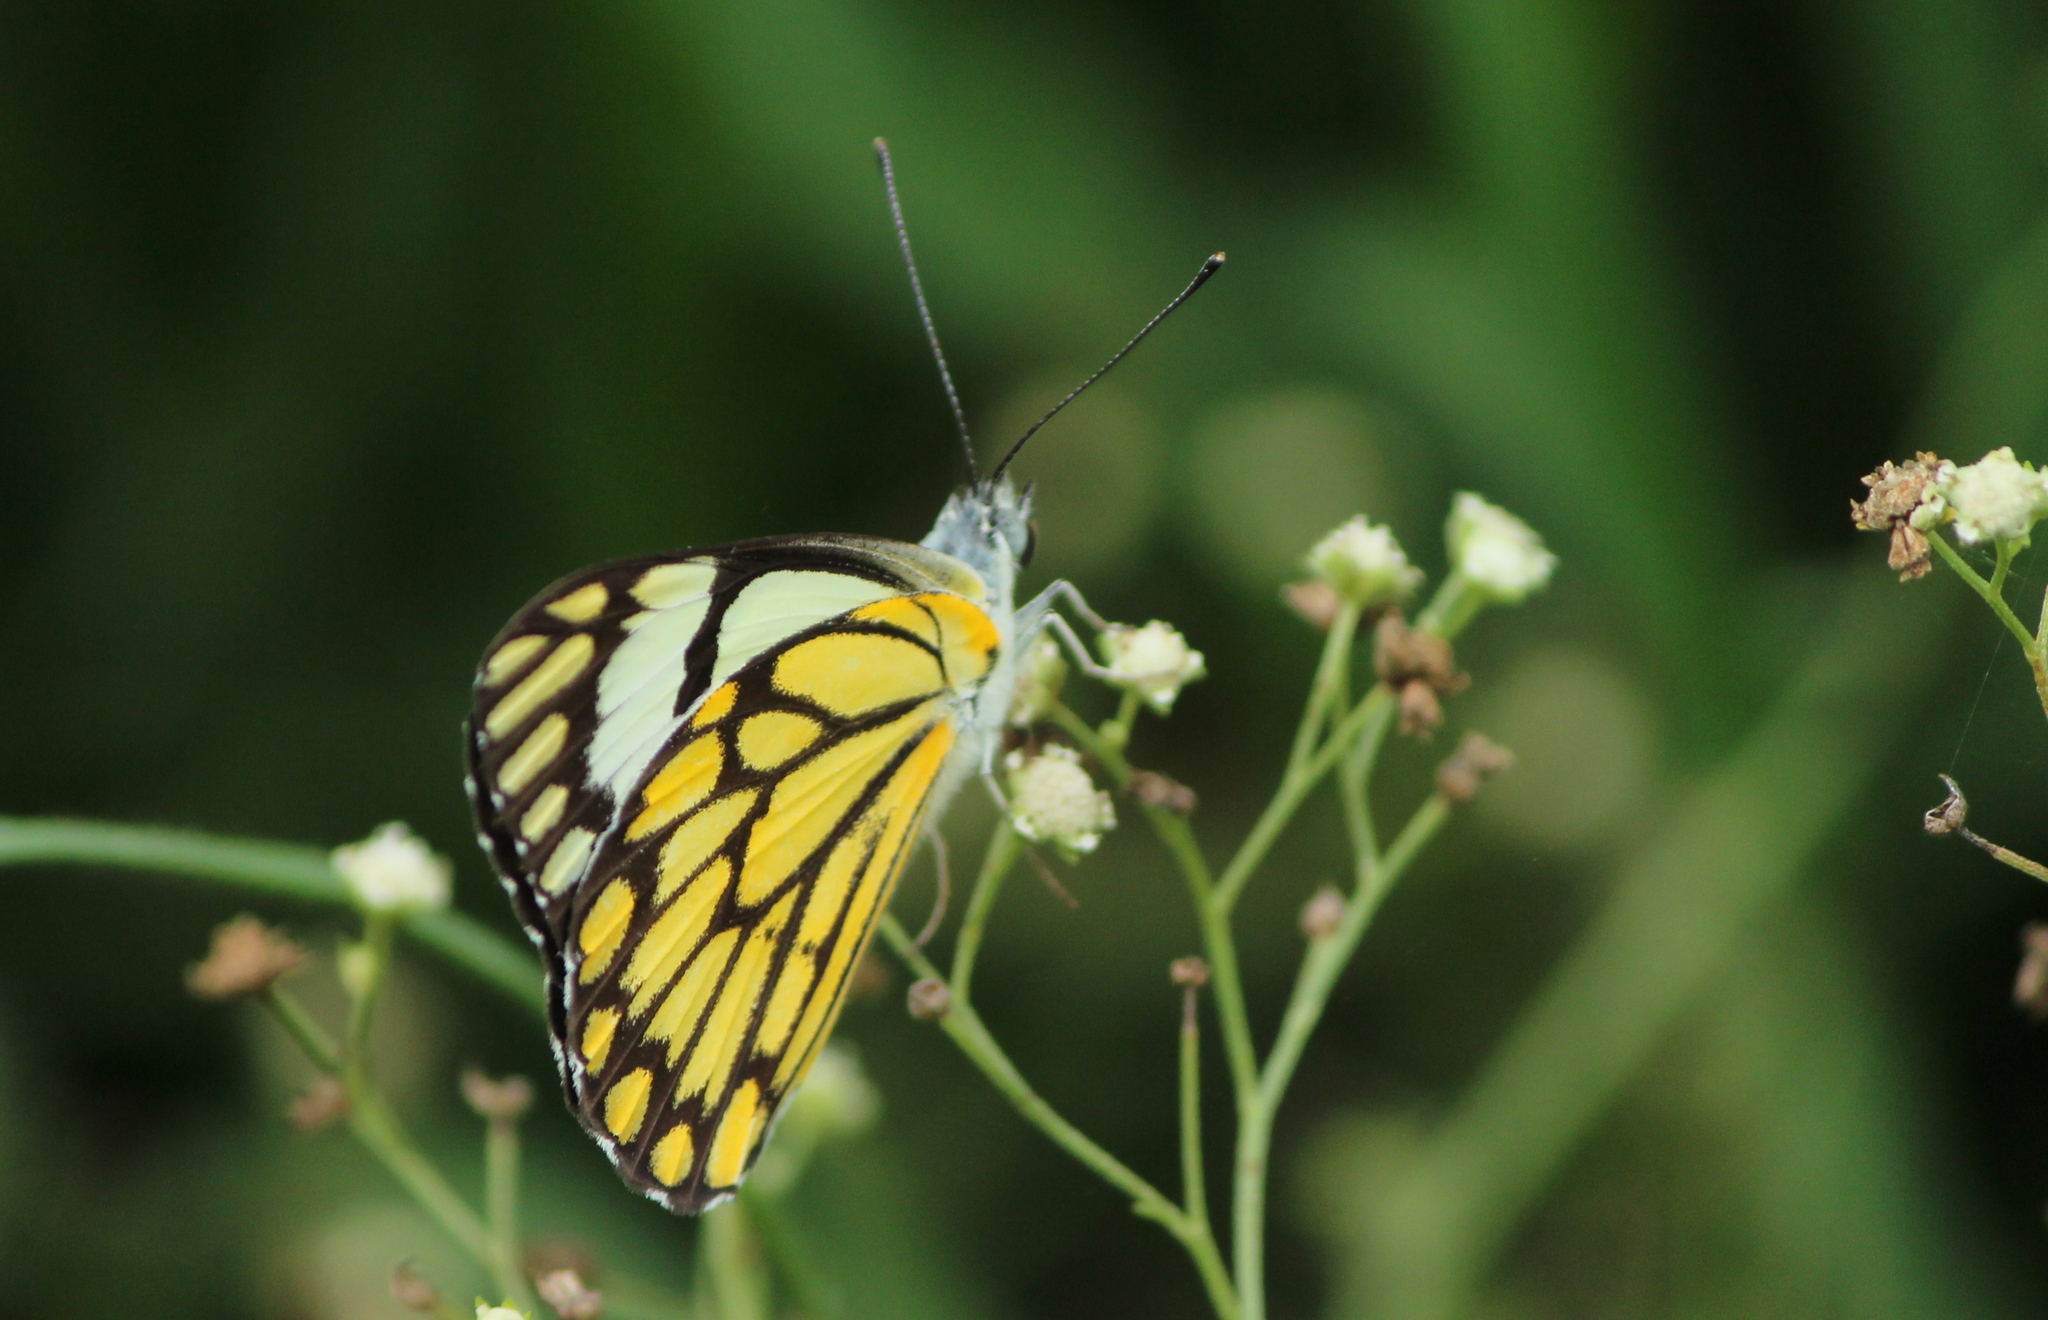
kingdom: Animalia
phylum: Arthropoda
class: Insecta
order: Lepidoptera
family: Pieridae
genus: Belenois
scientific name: Belenois aurota
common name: Brown-veined white
